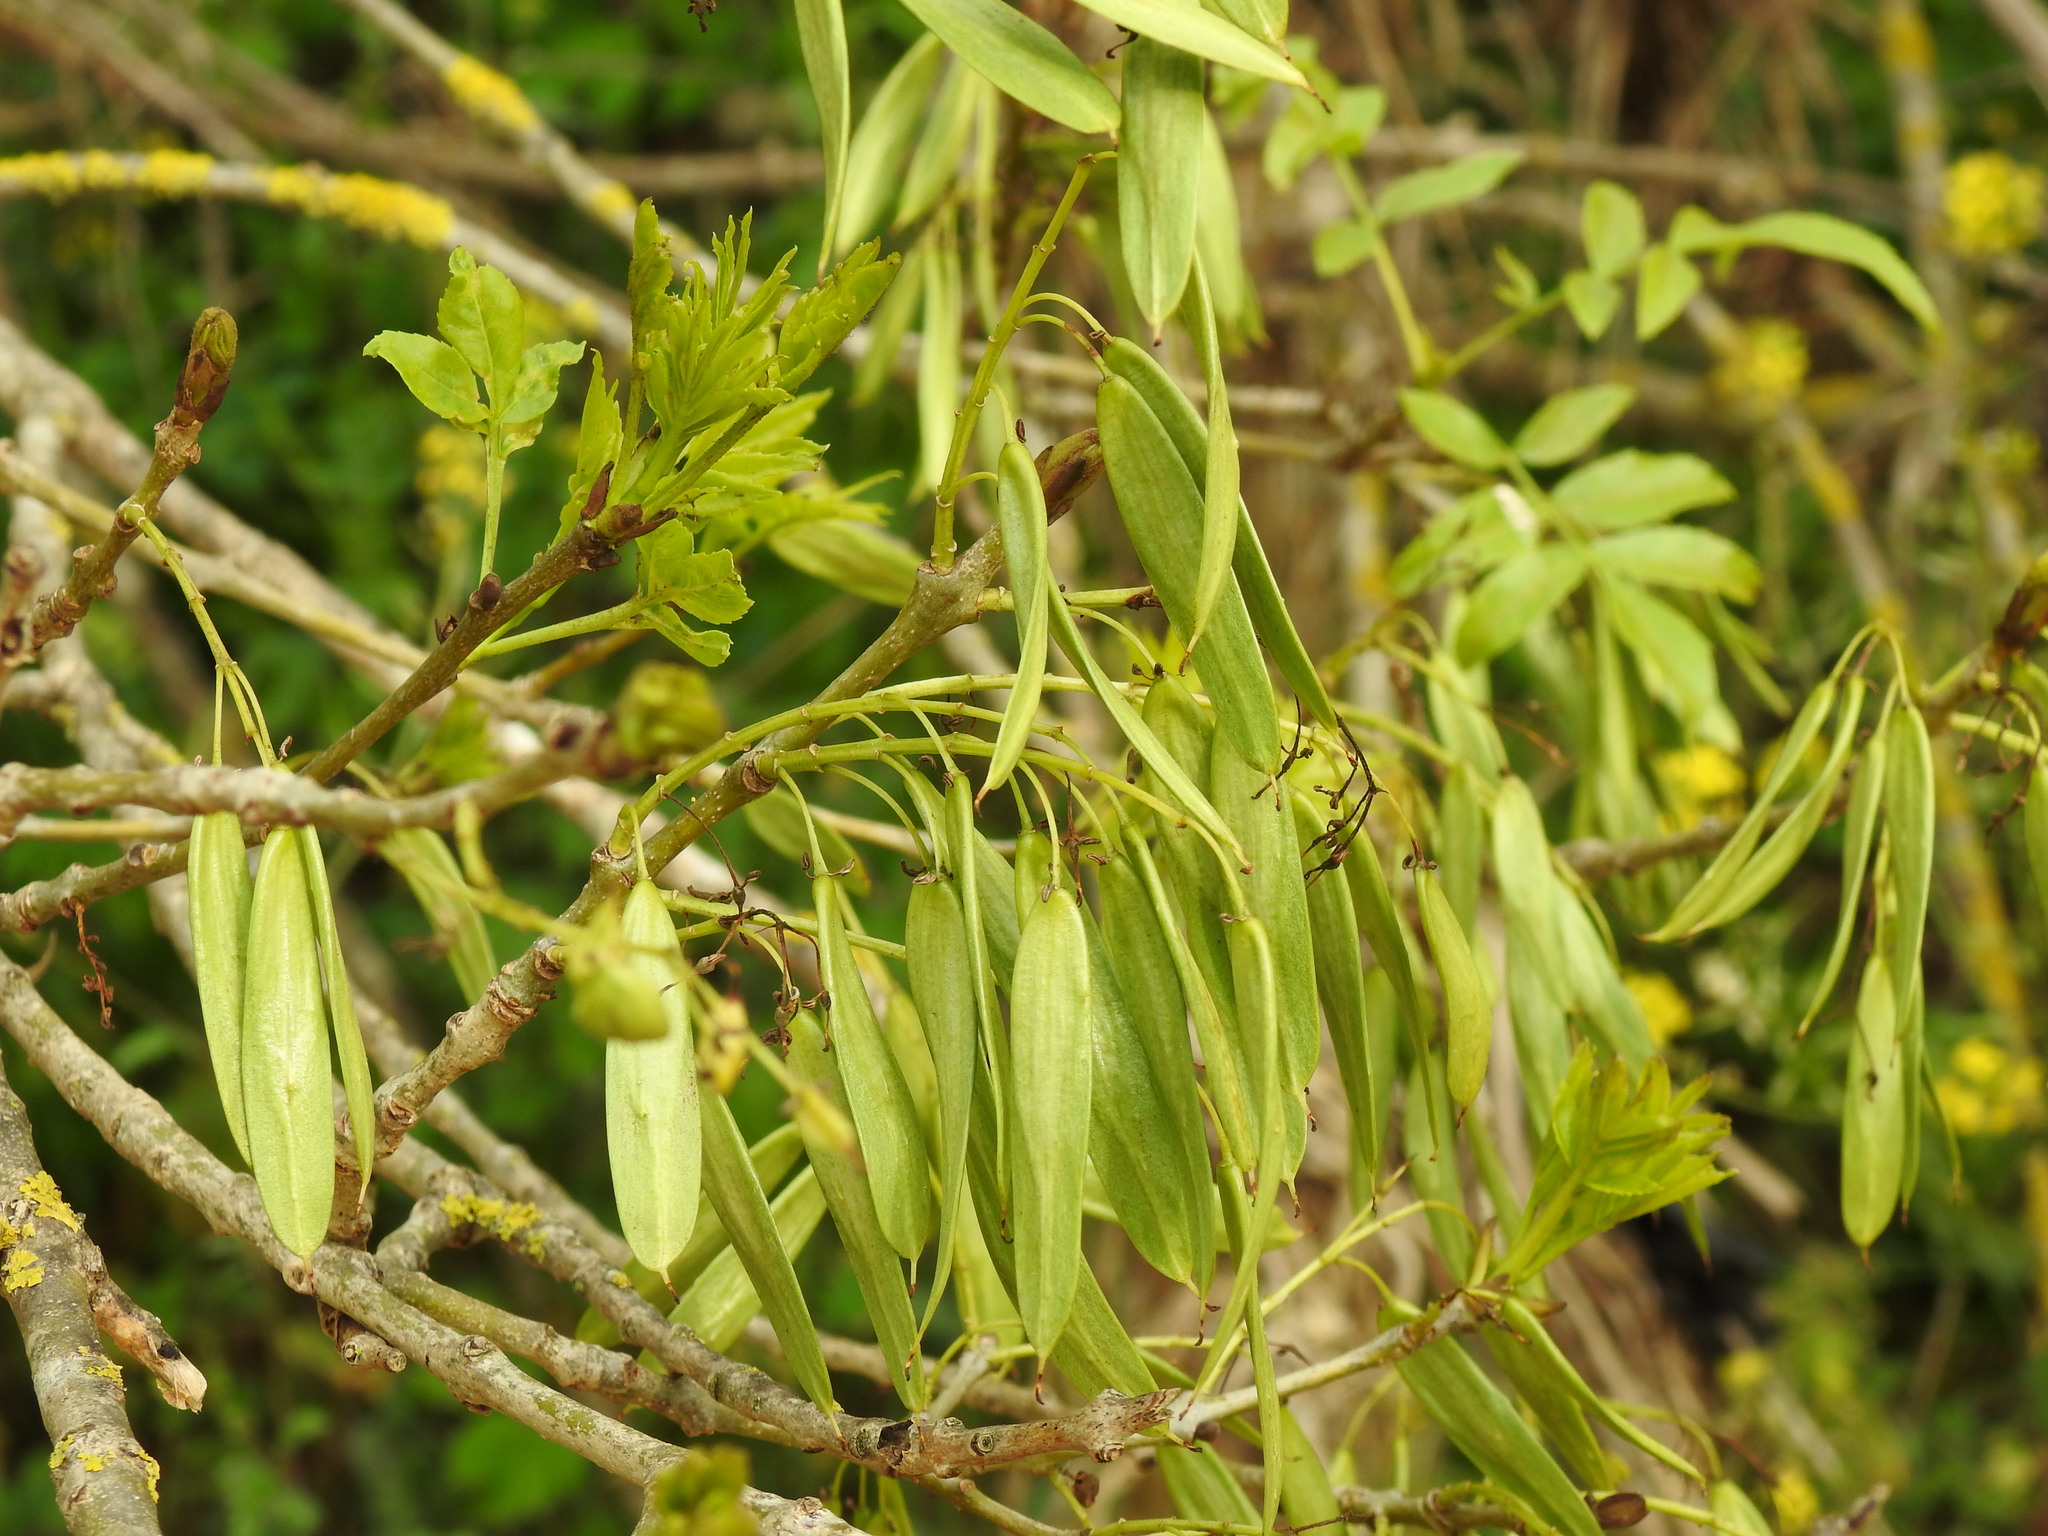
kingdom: Plantae
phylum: Tracheophyta
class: Magnoliopsida
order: Lamiales
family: Oleaceae
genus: Fraxinus
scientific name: Fraxinus angustifolia
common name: Narrow-leafed ash
